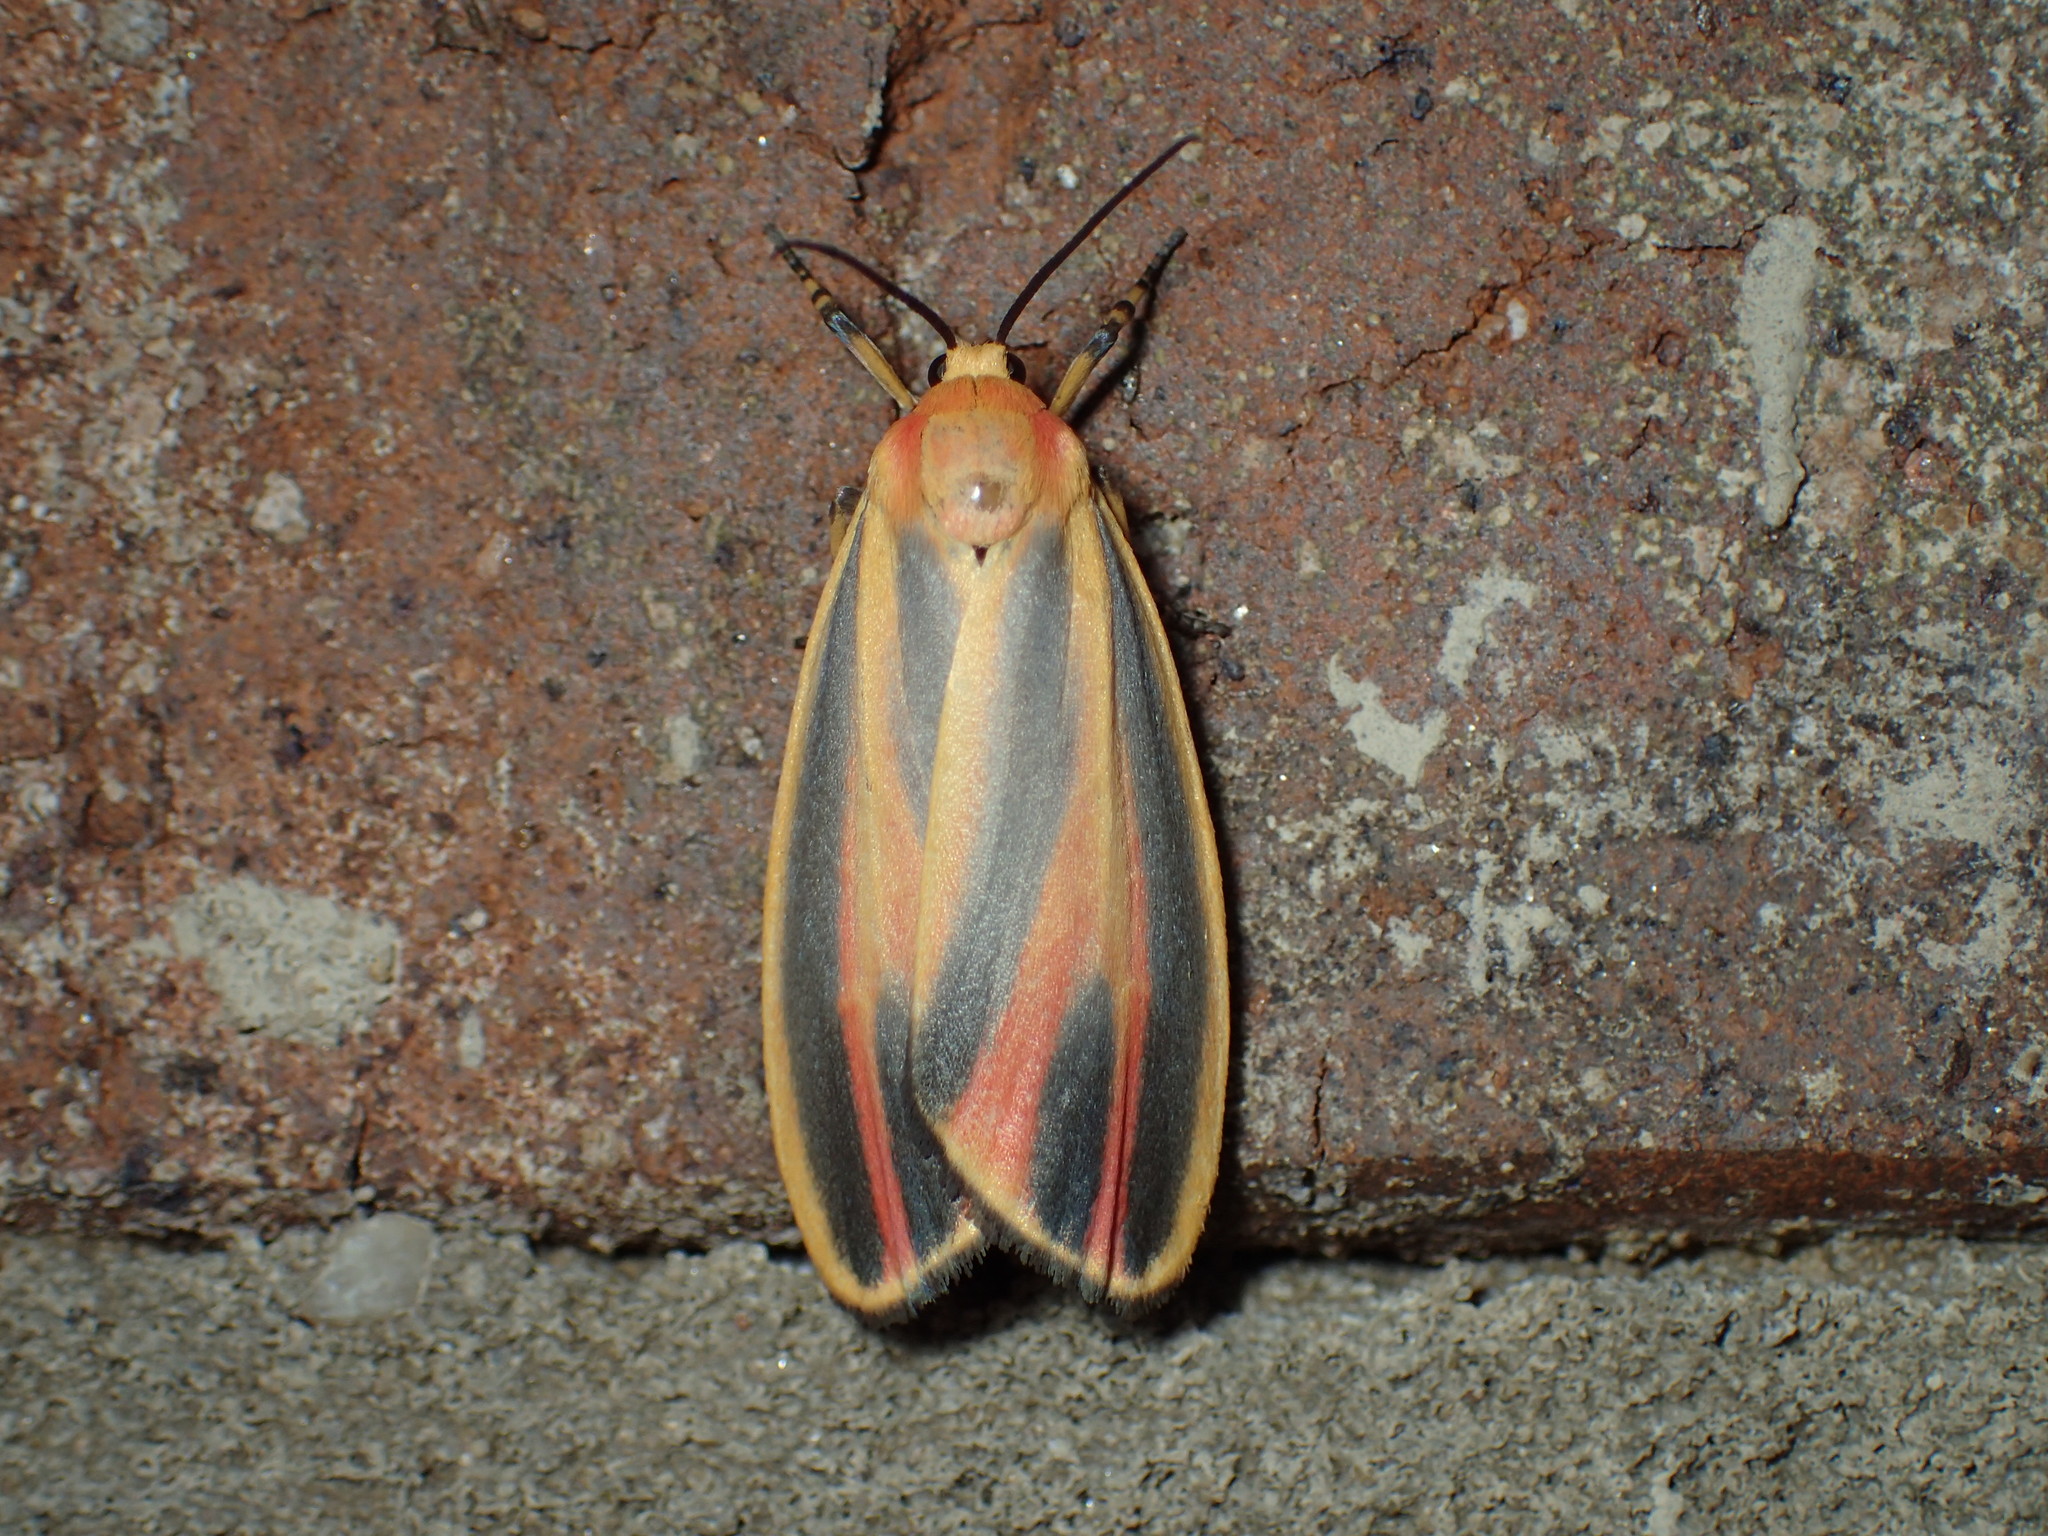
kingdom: Animalia
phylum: Arthropoda
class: Insecta
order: Lepidoptera
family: Erebidae
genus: Hypoprepia
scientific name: Hypoprepia fucosa
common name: Painted lichen moth
